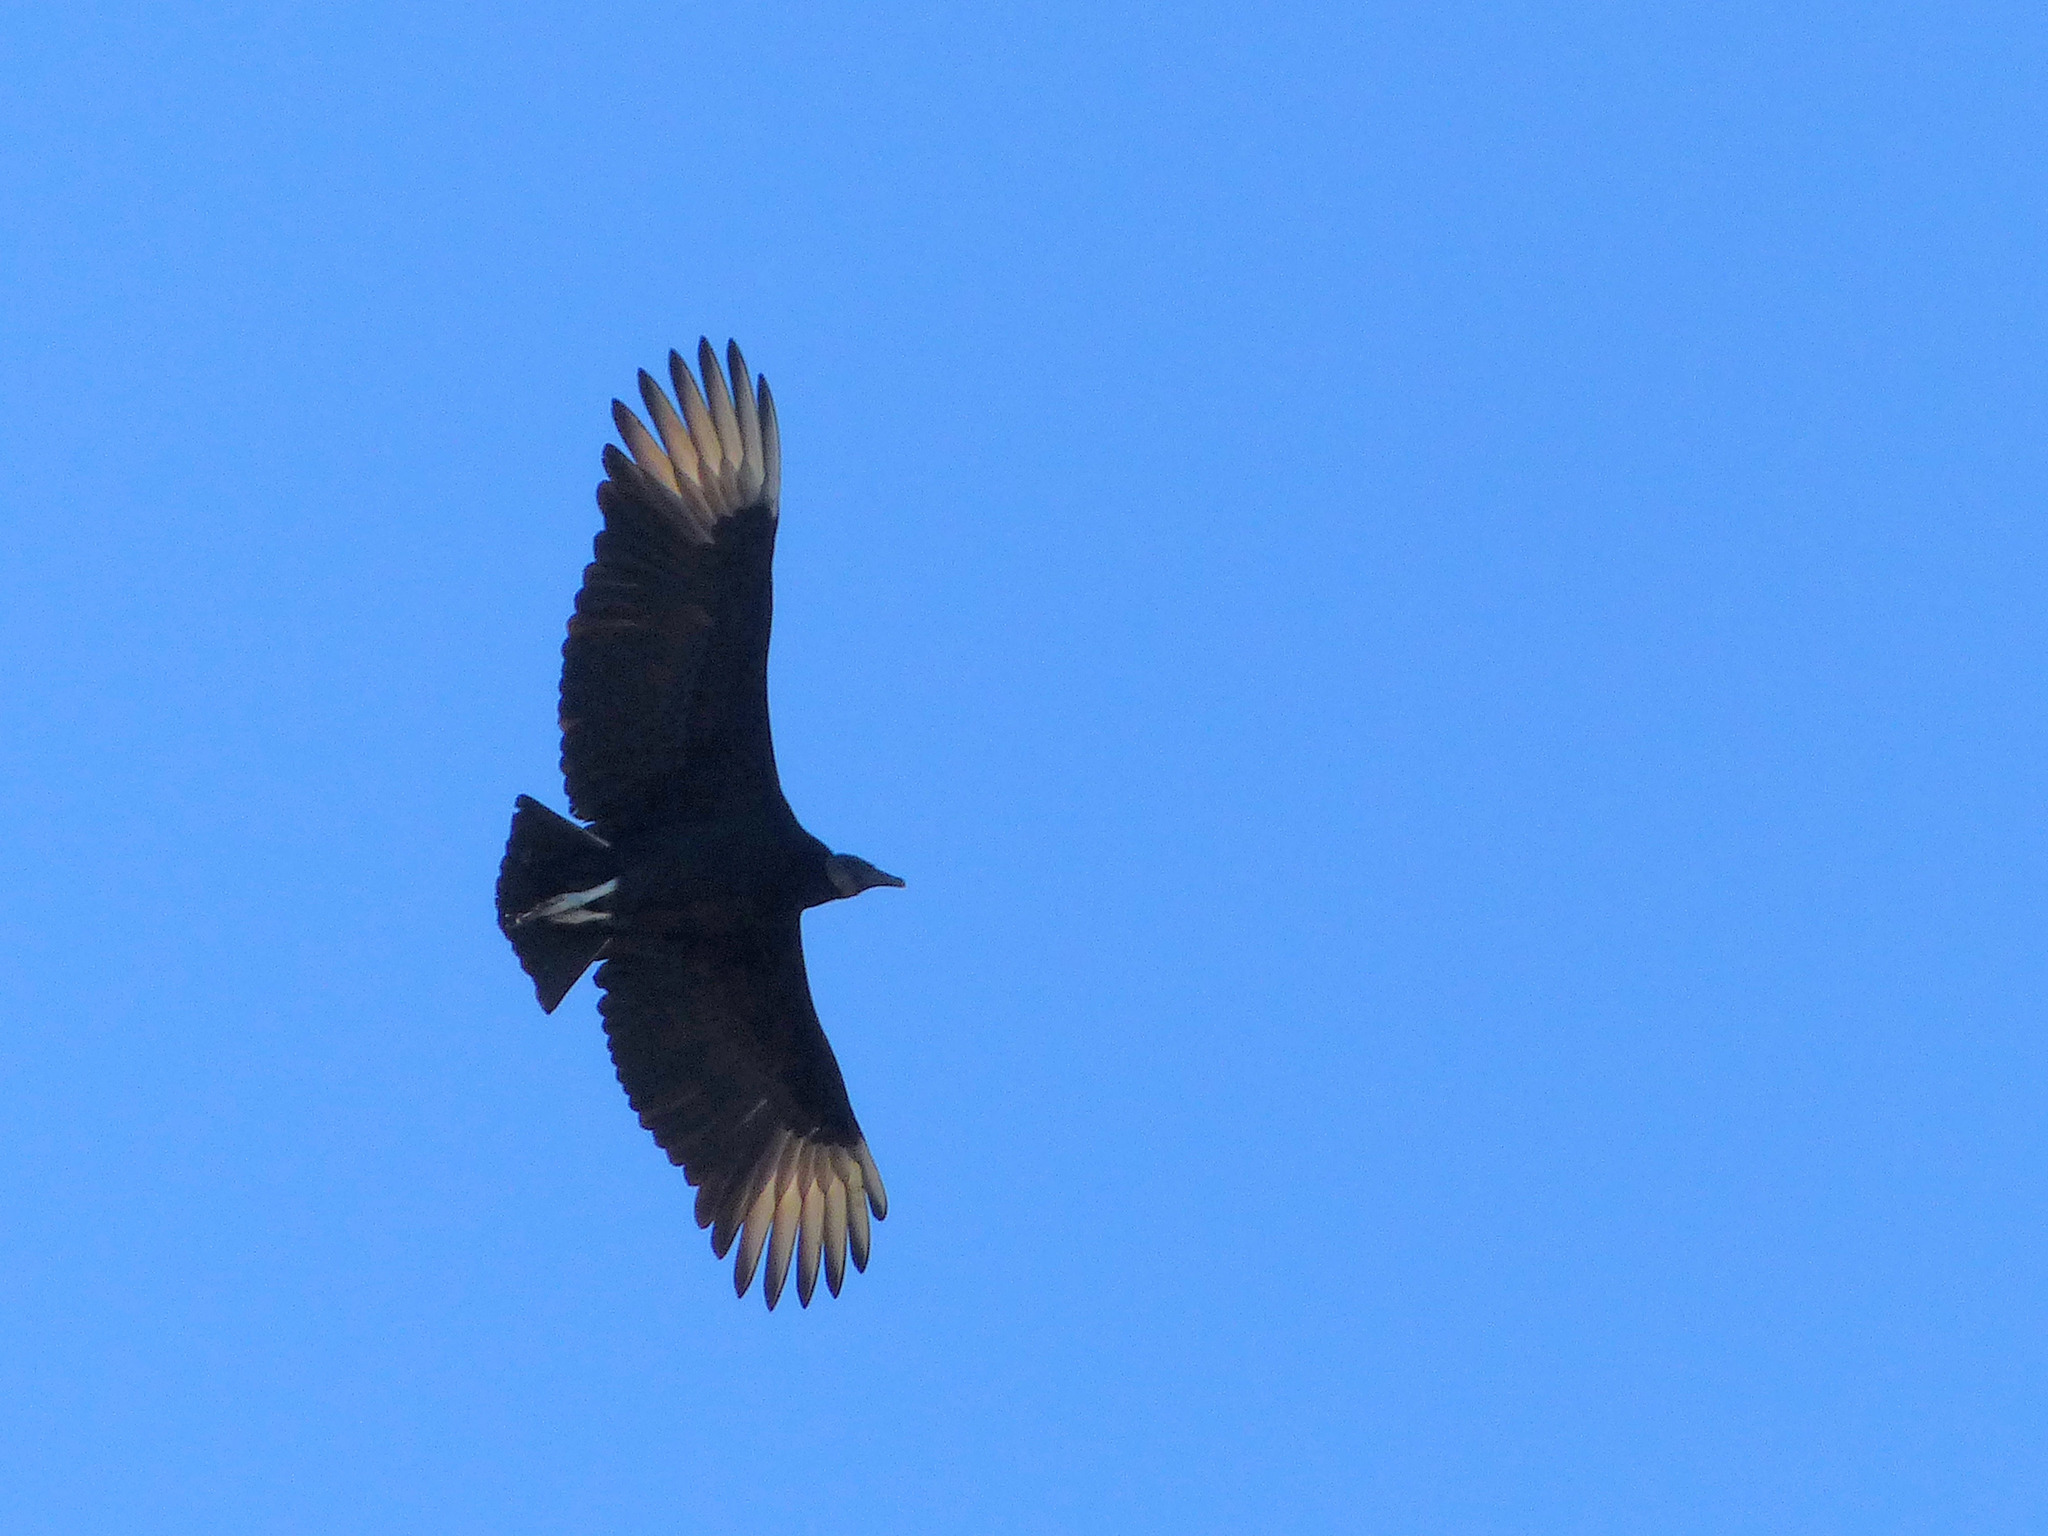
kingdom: Animalia
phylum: Chordata
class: Aves
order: Accipitriformes
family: Cathartidae
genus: Coragyps
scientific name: Coragyps atratus
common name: Black vulture
